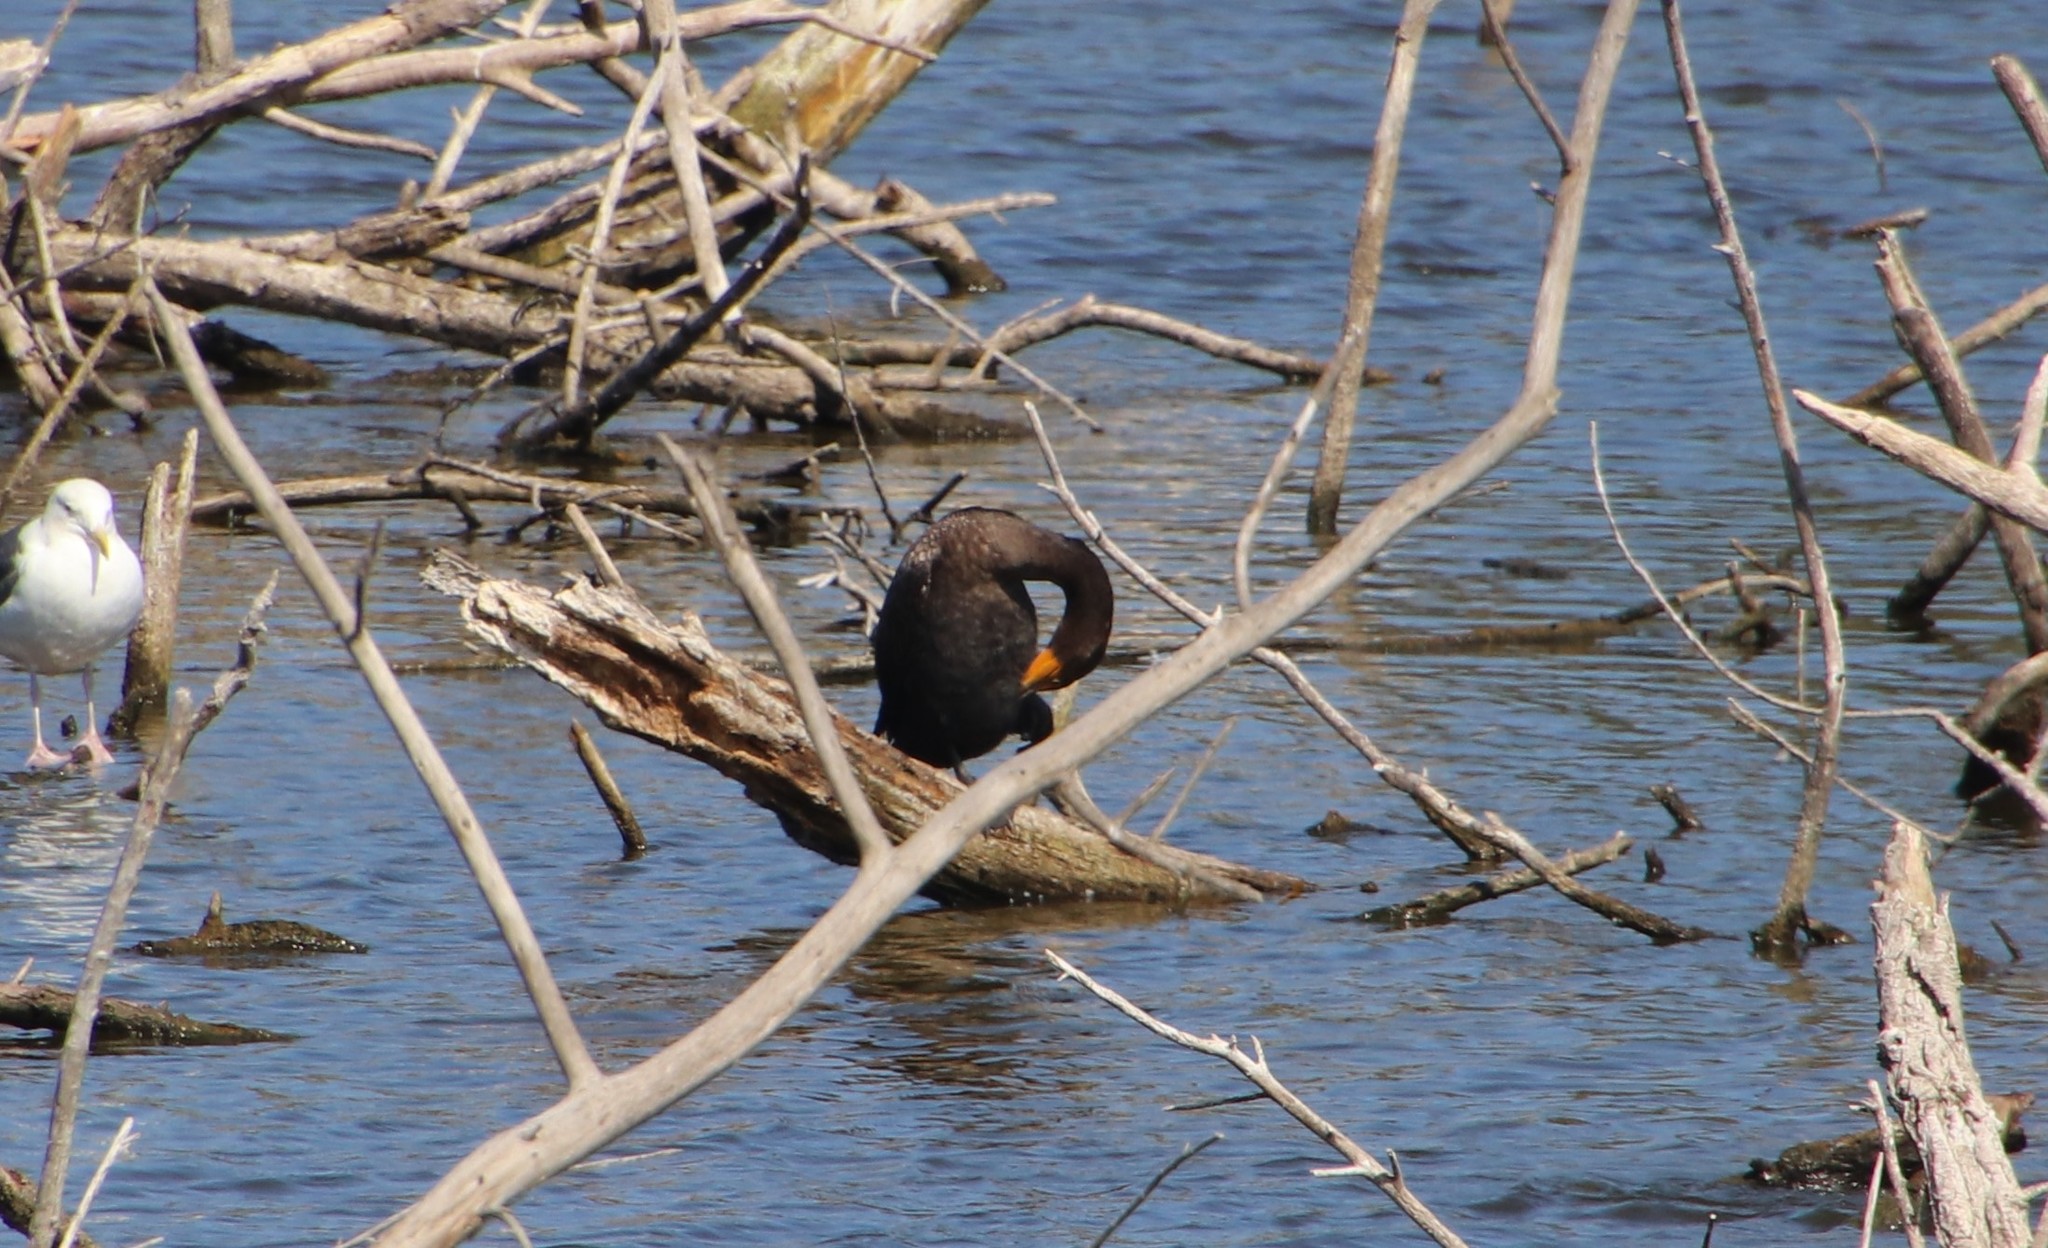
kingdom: Animalia
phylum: Chordata
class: Aves
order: Suliformes
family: Phalacrocoracidae
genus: Phalacrocorax
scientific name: Phalacrocorax auritus
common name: Double-crested cormorant
